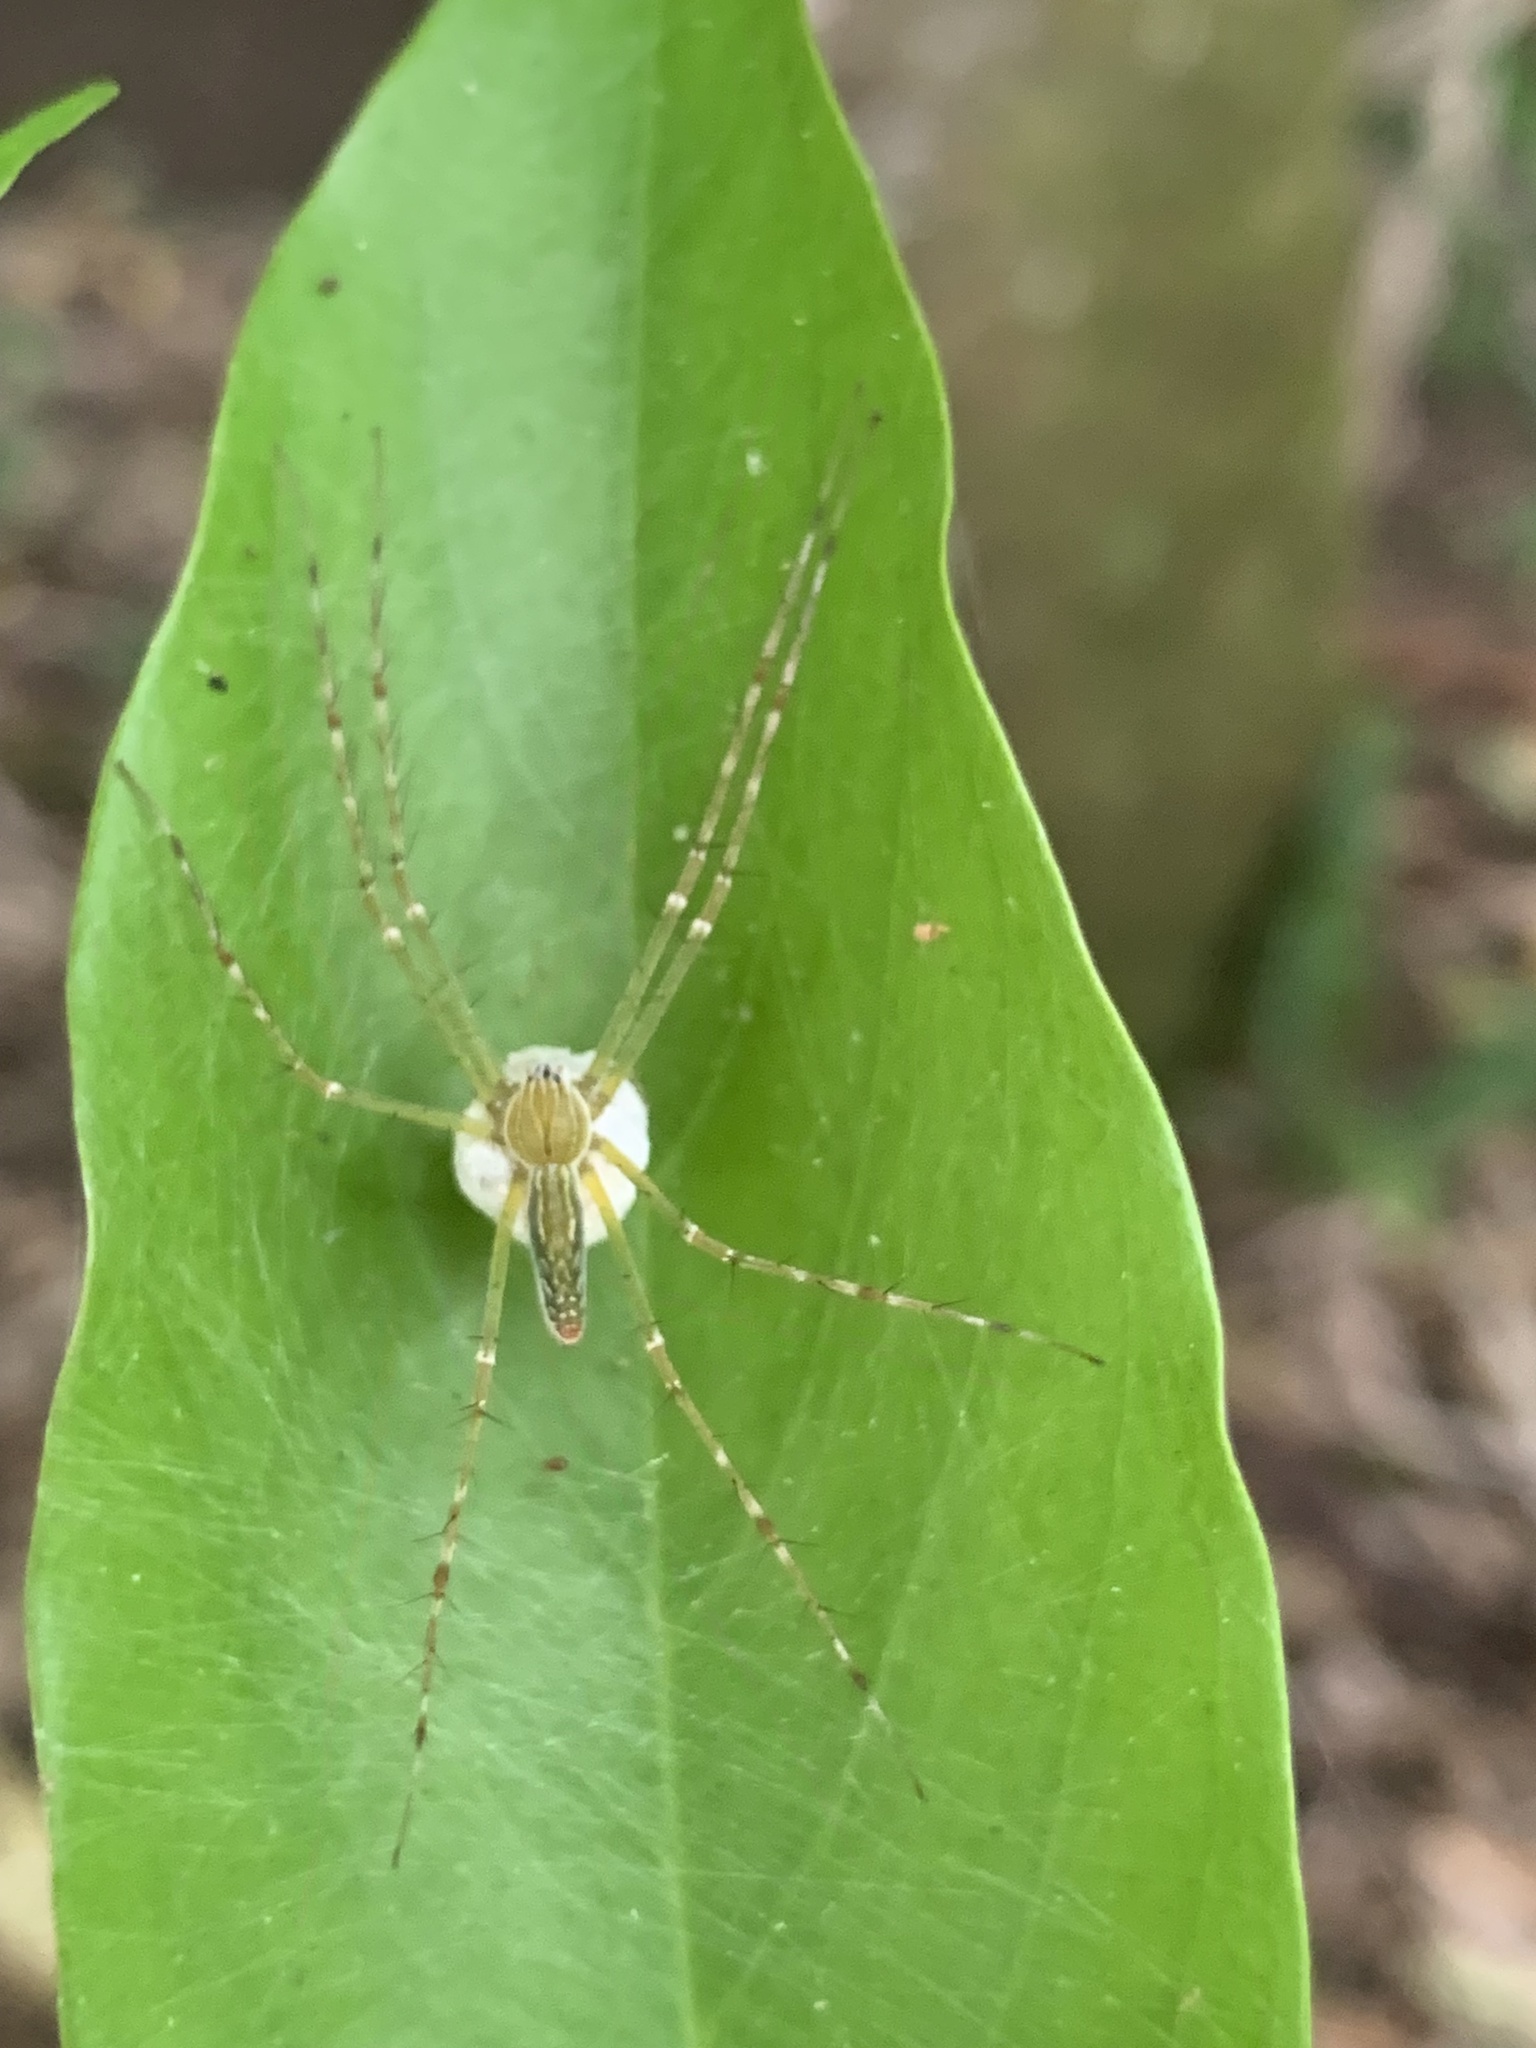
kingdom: Animalia
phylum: Arthropoda
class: Arachnida
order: Araneae
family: Pisauridae
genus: Hygropoda
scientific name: Hygropoda lineata
